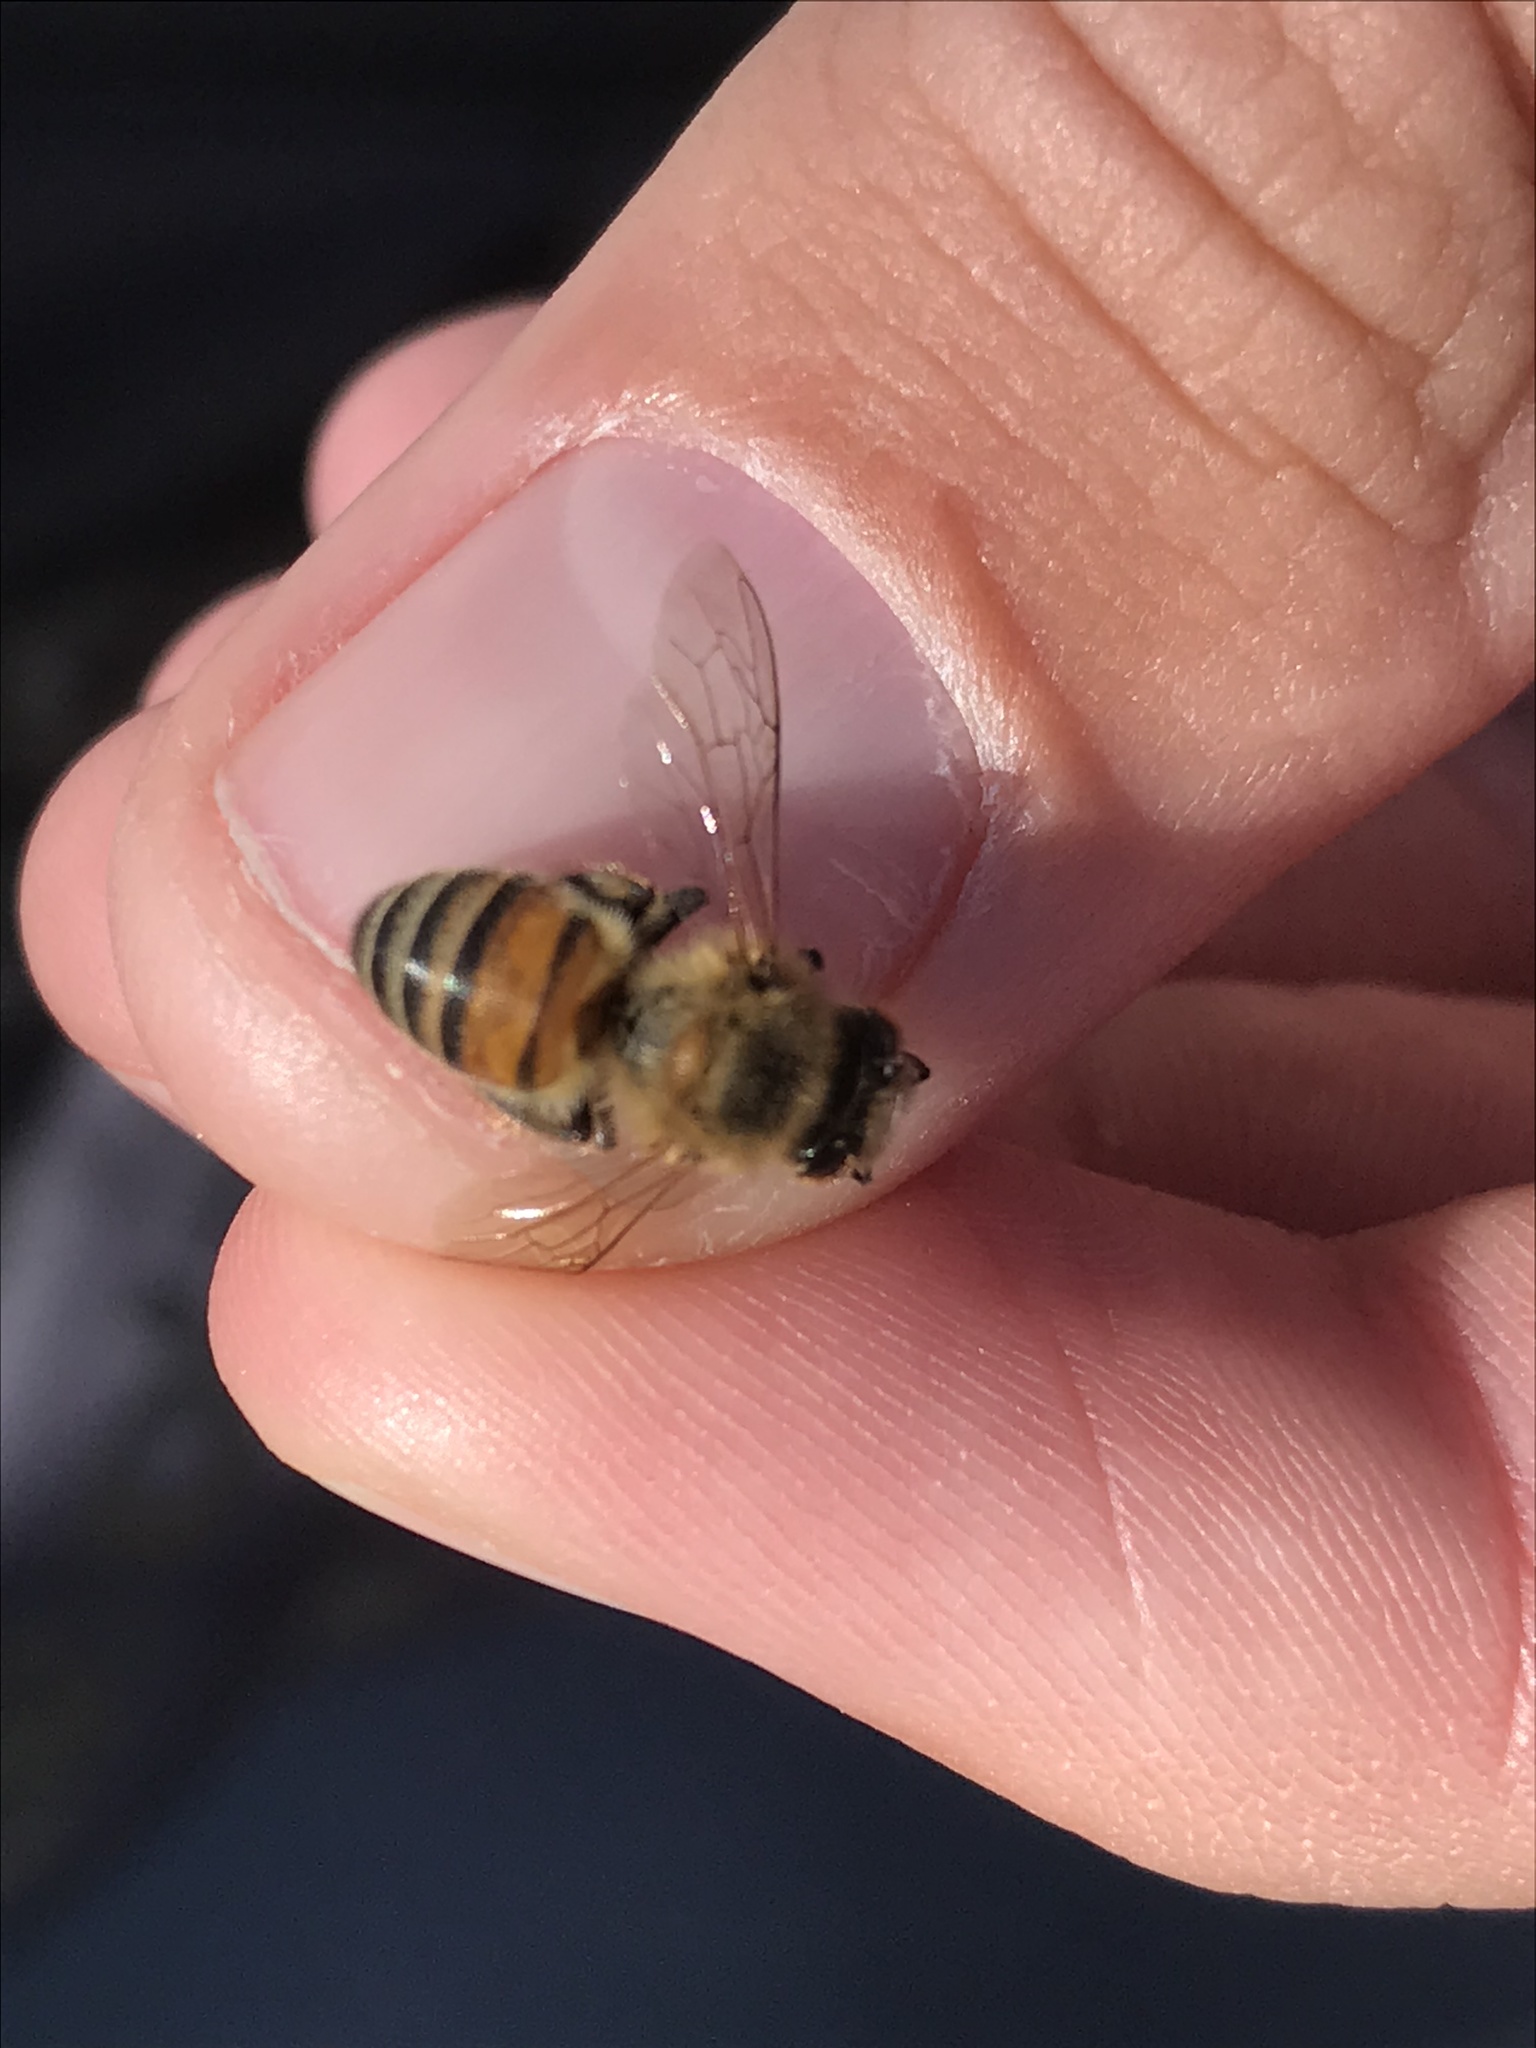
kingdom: Animalia
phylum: Arthropoda
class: Insecta
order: Hymenoptera
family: Apidae
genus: Apis
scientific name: Apis mellifera
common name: Honey bee
